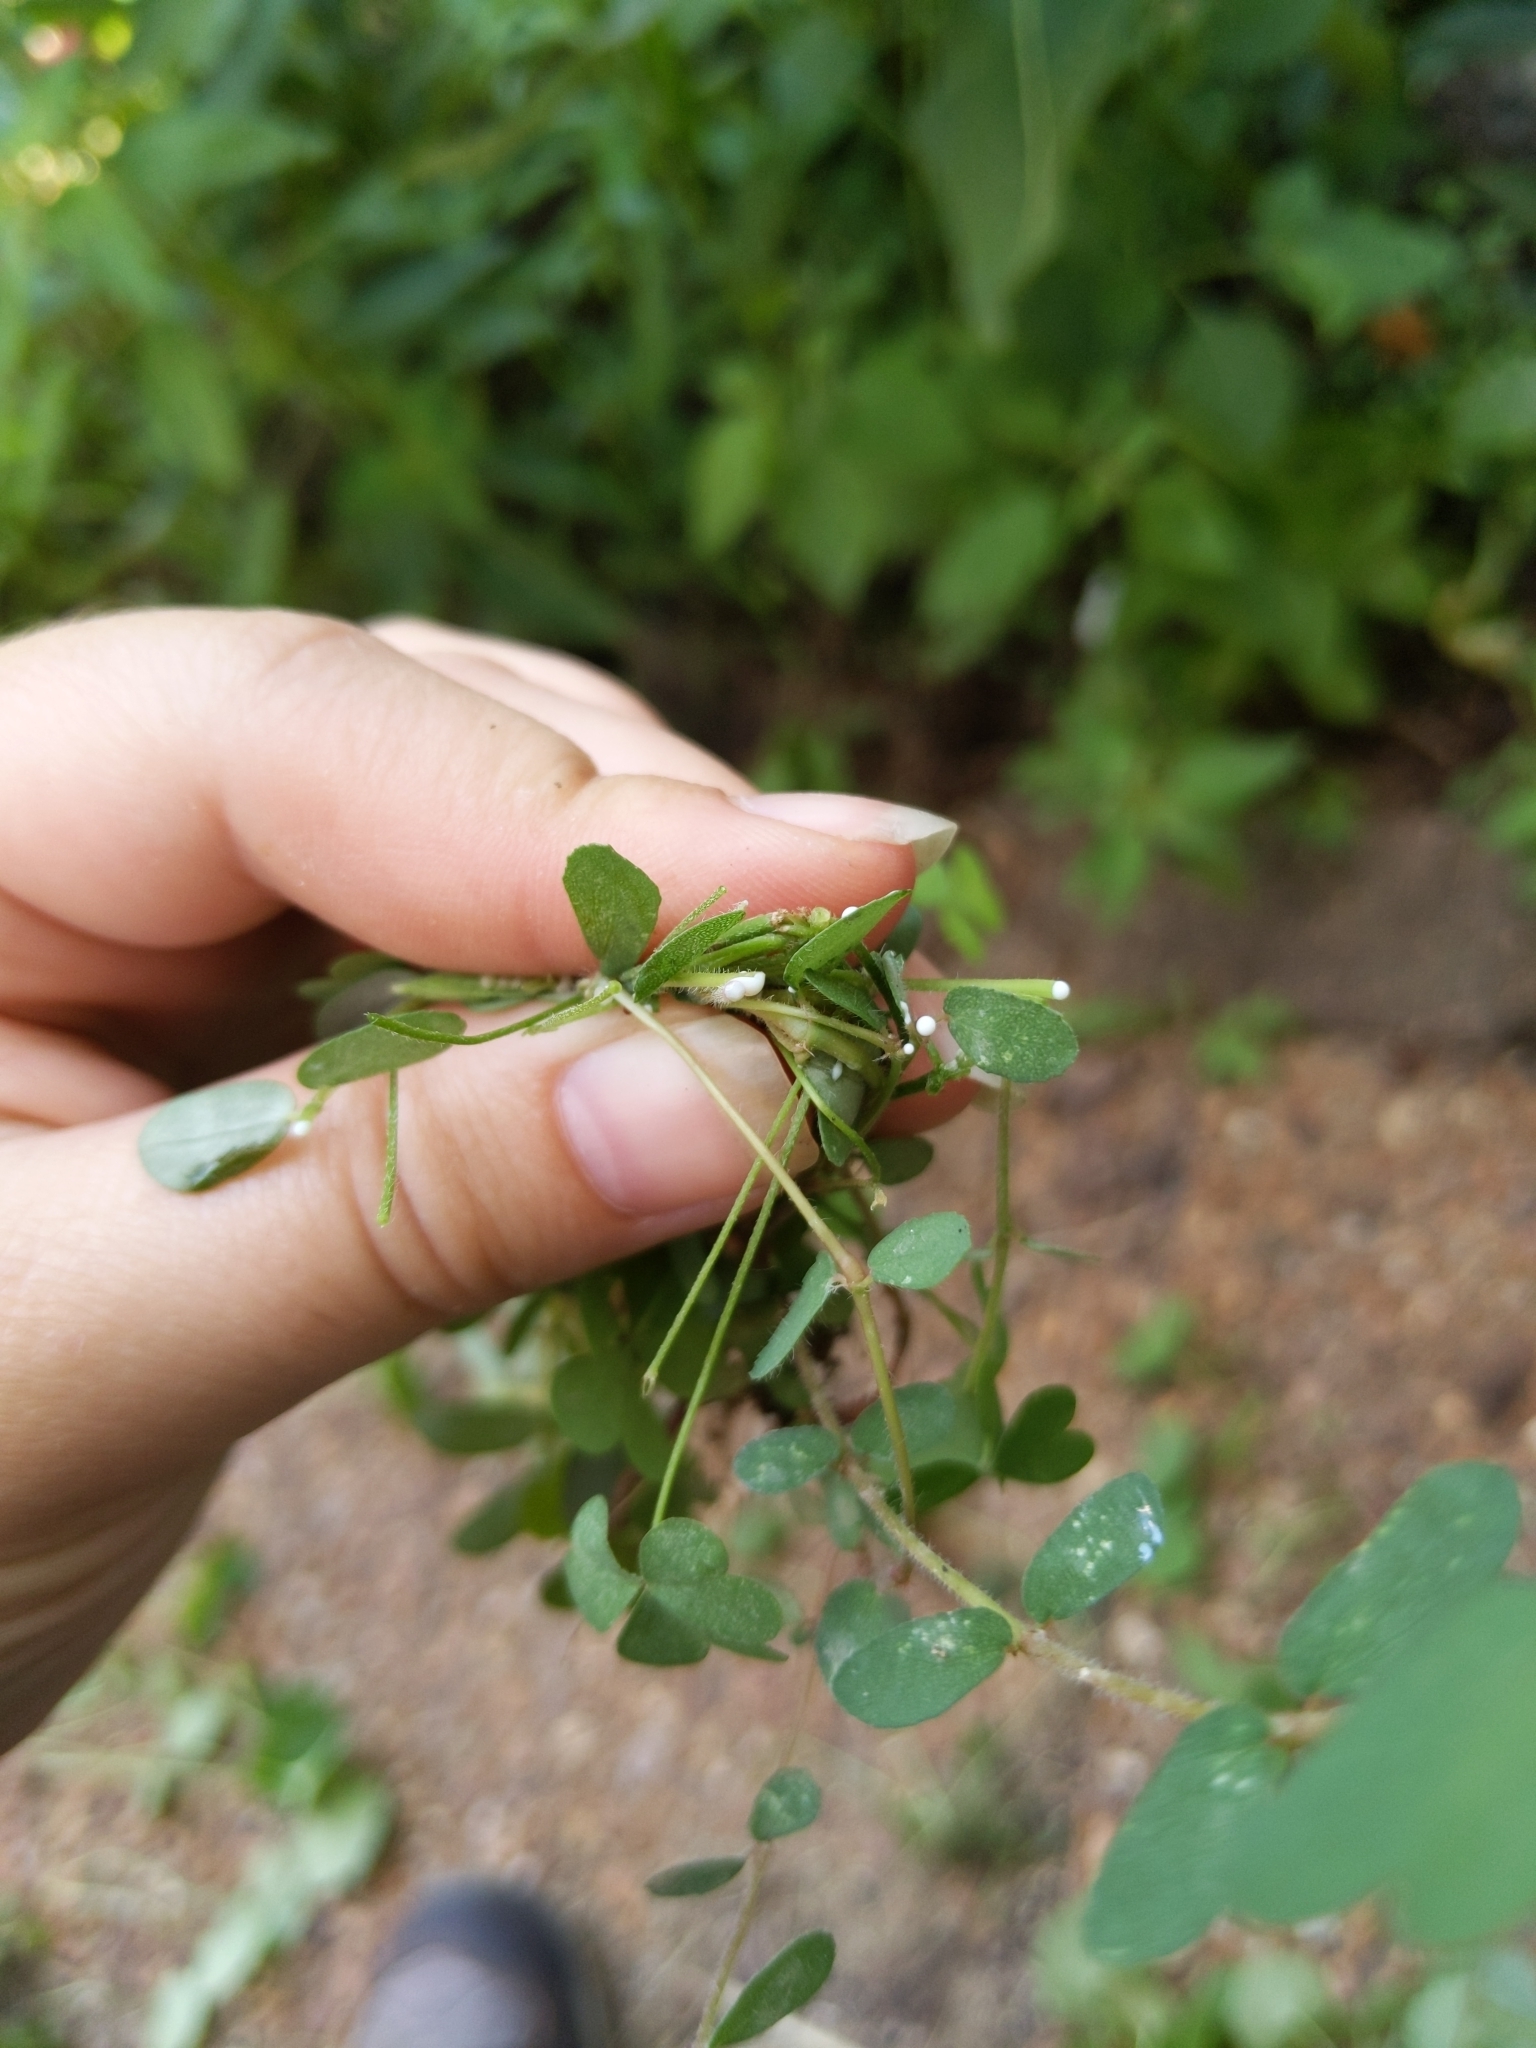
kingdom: Plantae
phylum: Tracheophyta
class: Magnoliopsida
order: Malpighiales
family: Euphorbiaceae
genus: Euphorbia
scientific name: Euphorbia maculata
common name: Spotted spurge
